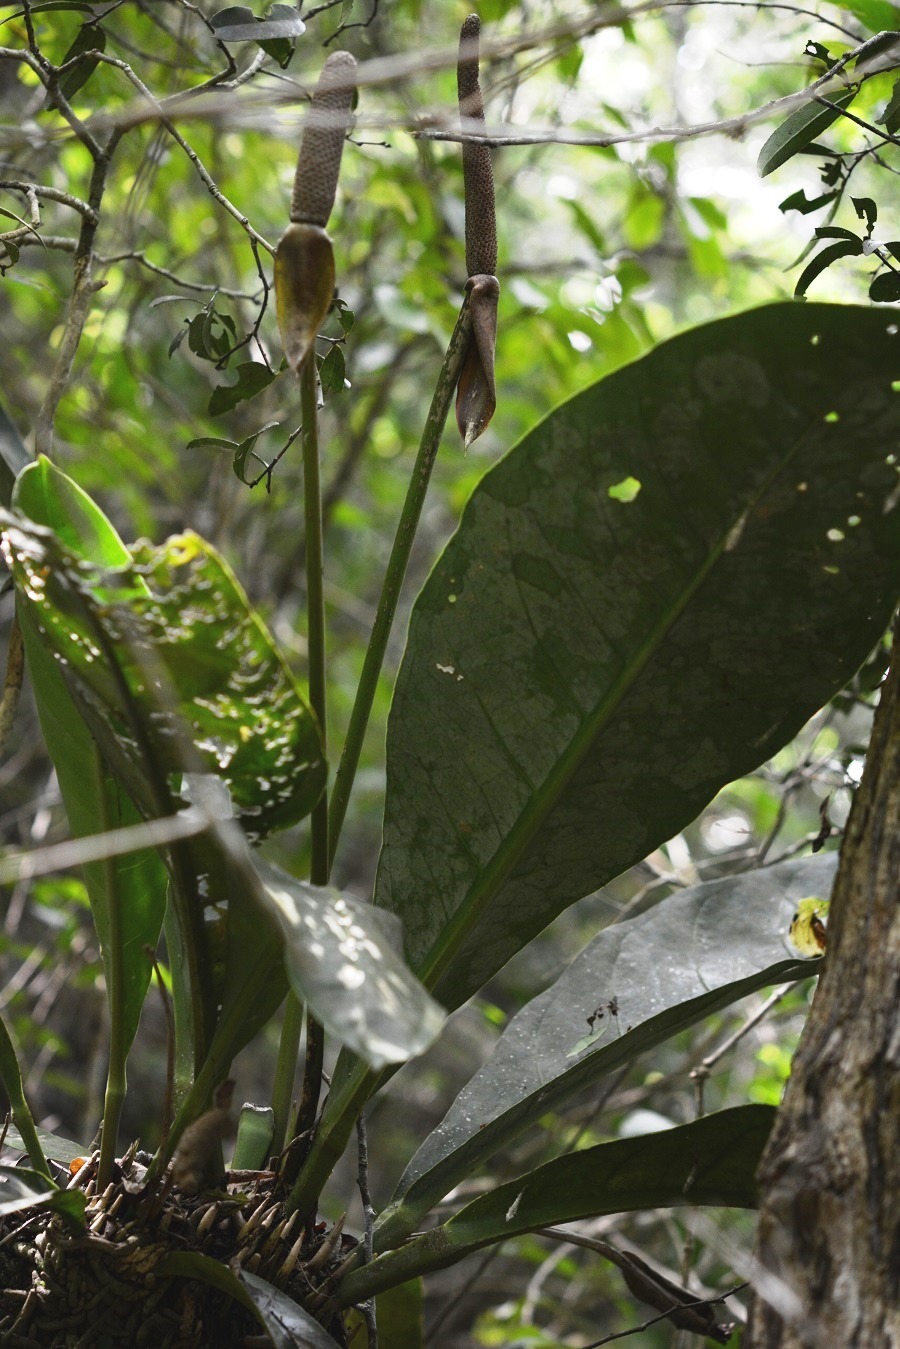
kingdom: Plantae
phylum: Tracheophyta
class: Liliopsida
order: Alismatales
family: Araceae
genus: Anthurium
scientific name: Anthurium schlechtendalii
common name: Laceleaf
